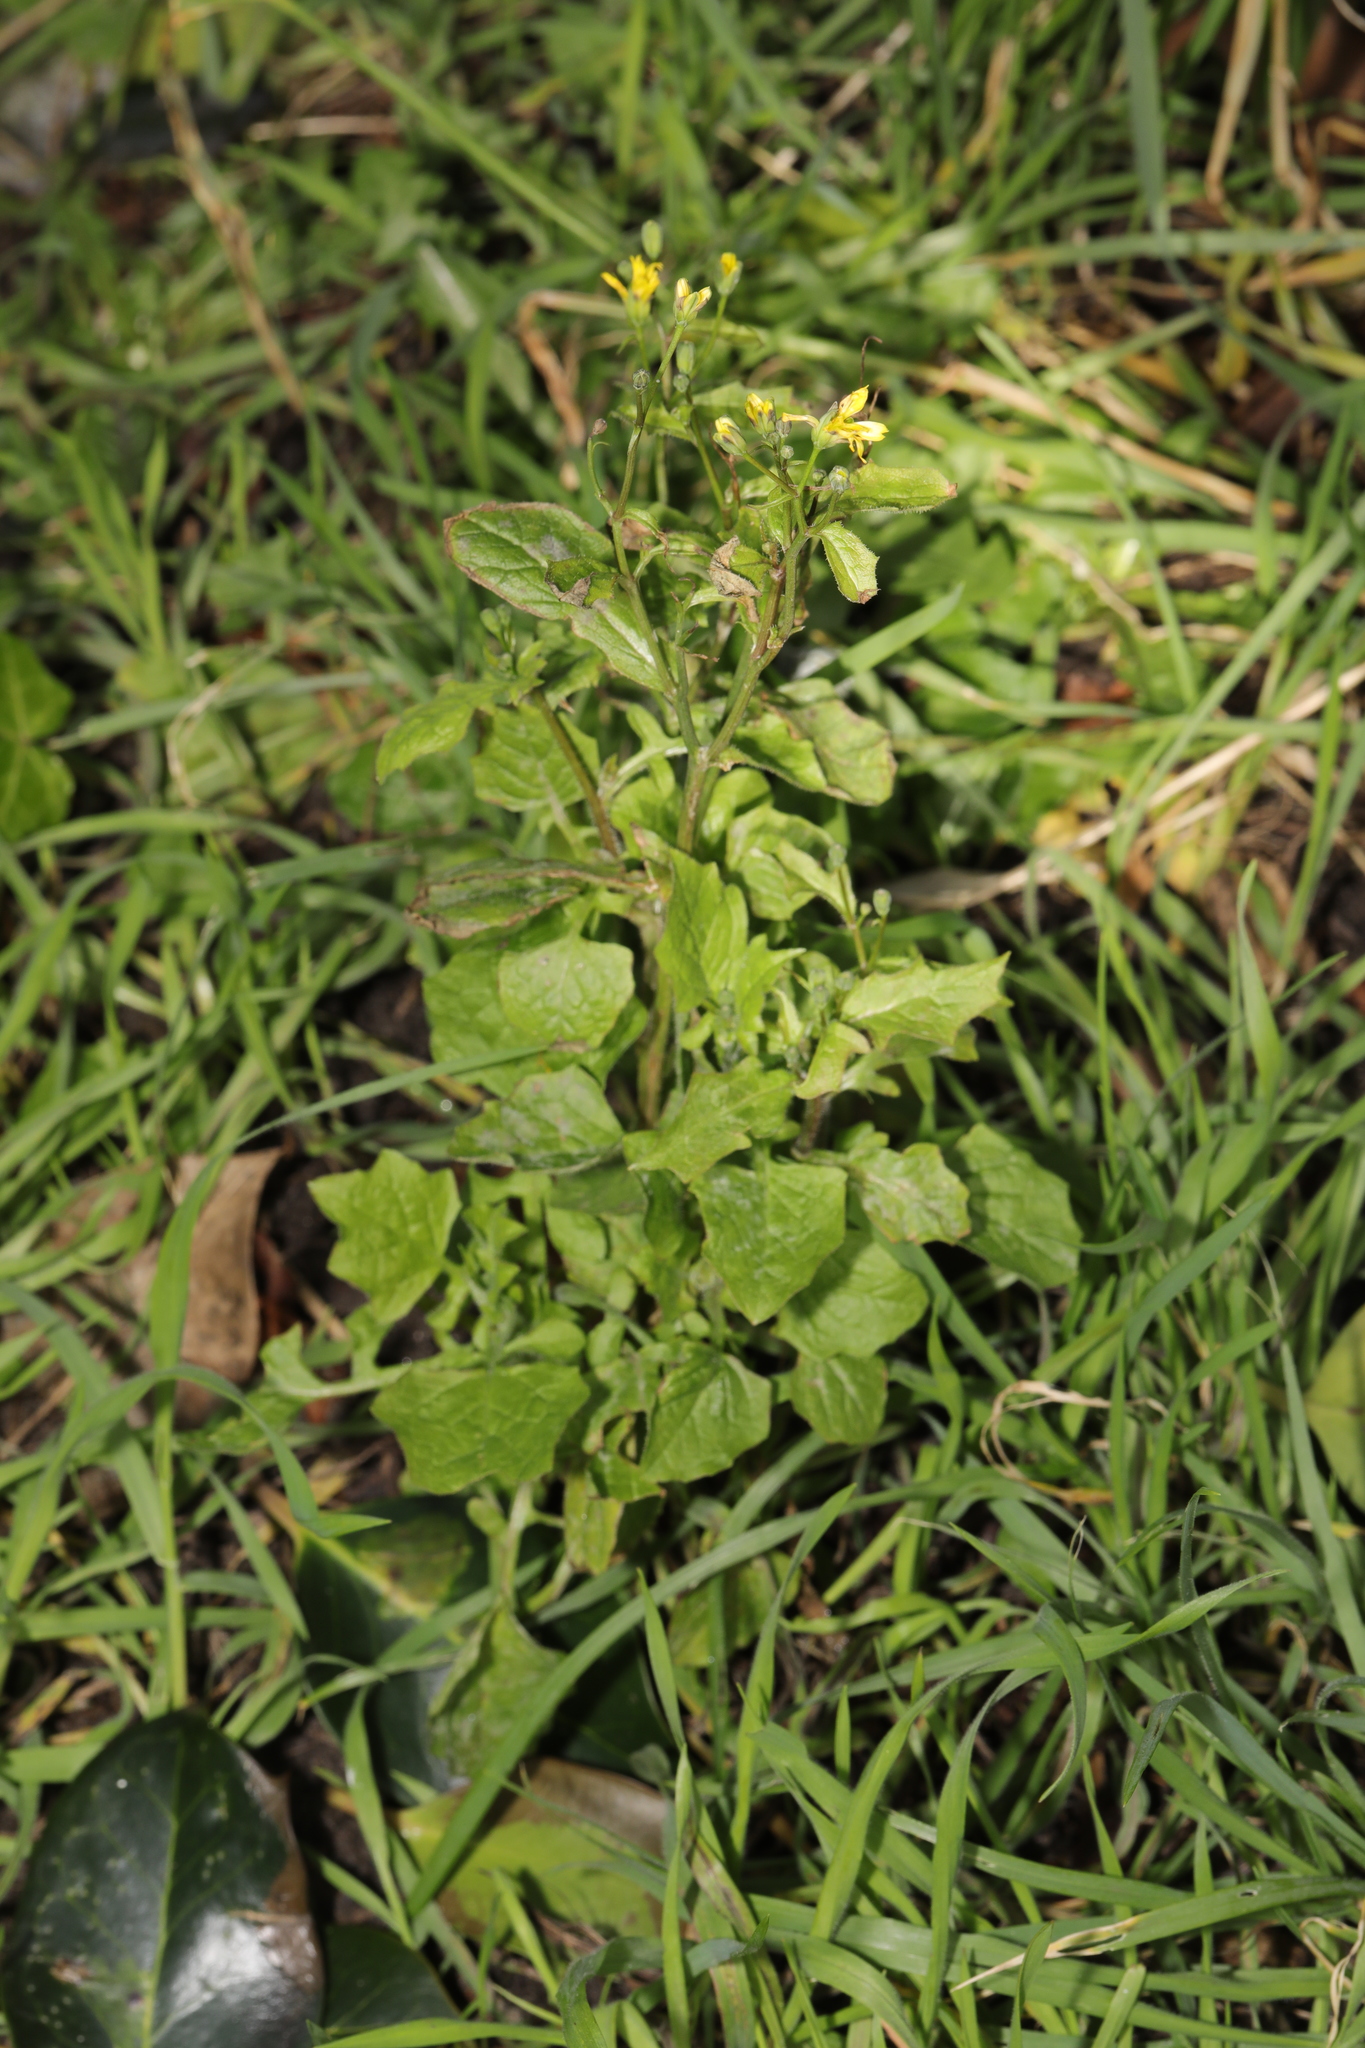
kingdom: Plantae
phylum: Tracheophyta
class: Magnoliopsida
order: Asterales
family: Asteraceae
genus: Lapsana
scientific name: Lapsana communis
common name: Nipplewort
